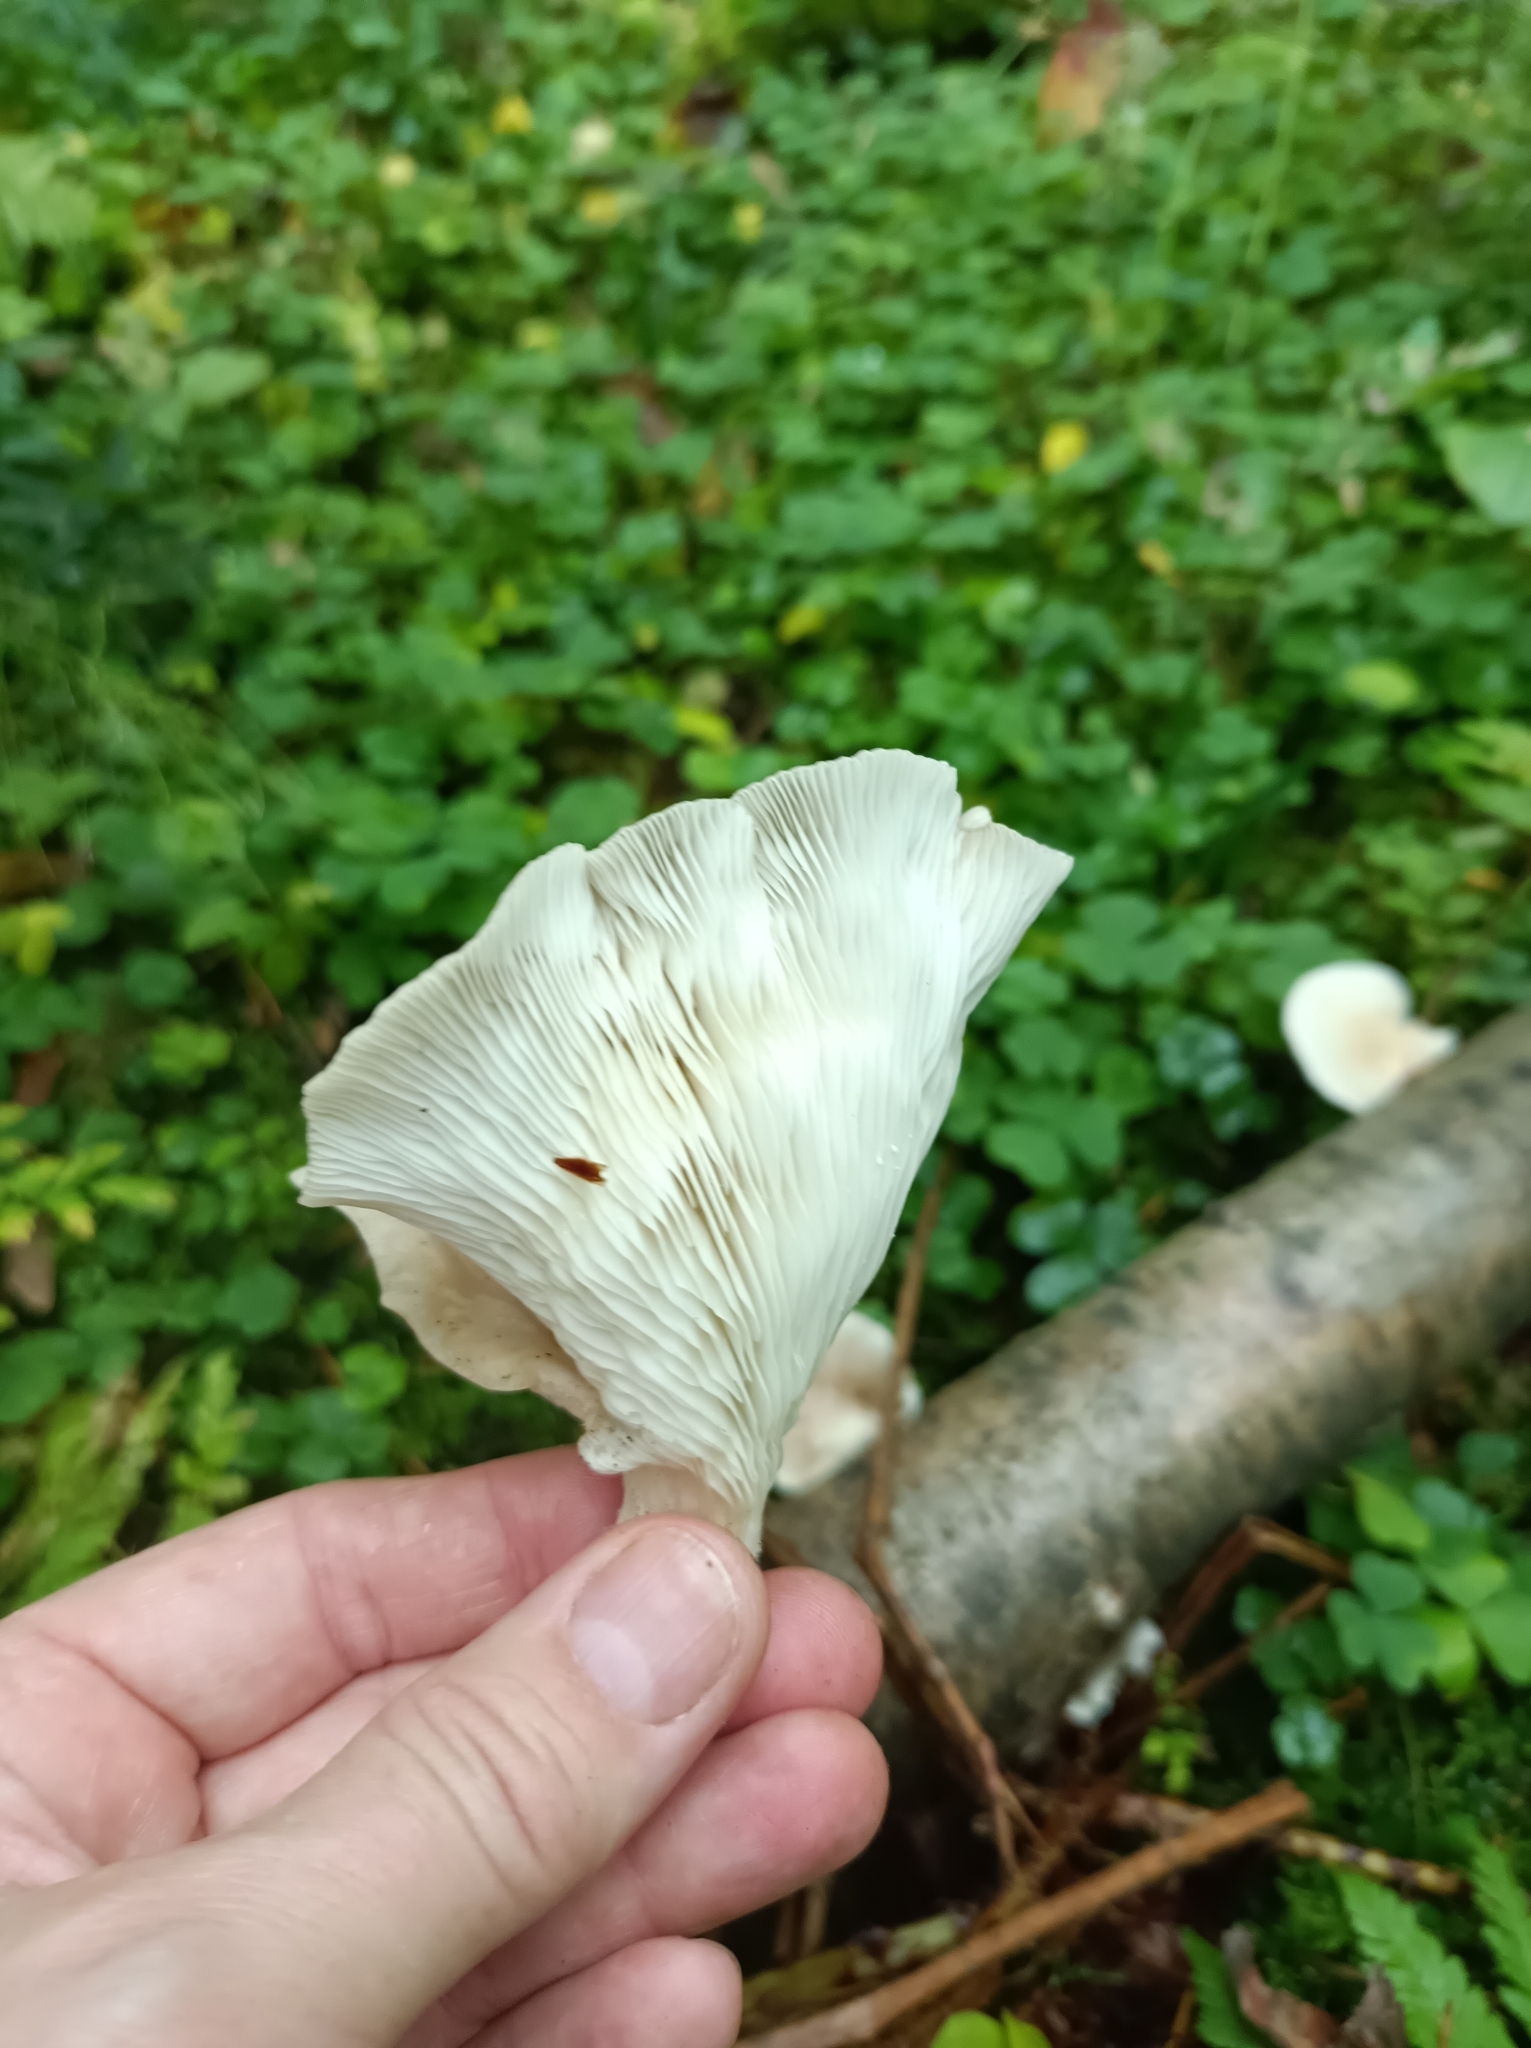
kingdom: Fungi
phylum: Basidiomycota
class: Agaricomycetes
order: Agaricales
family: Pleurotaceae
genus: Pleurotus
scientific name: Pleurotus pulmonarius
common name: Pale oyster
